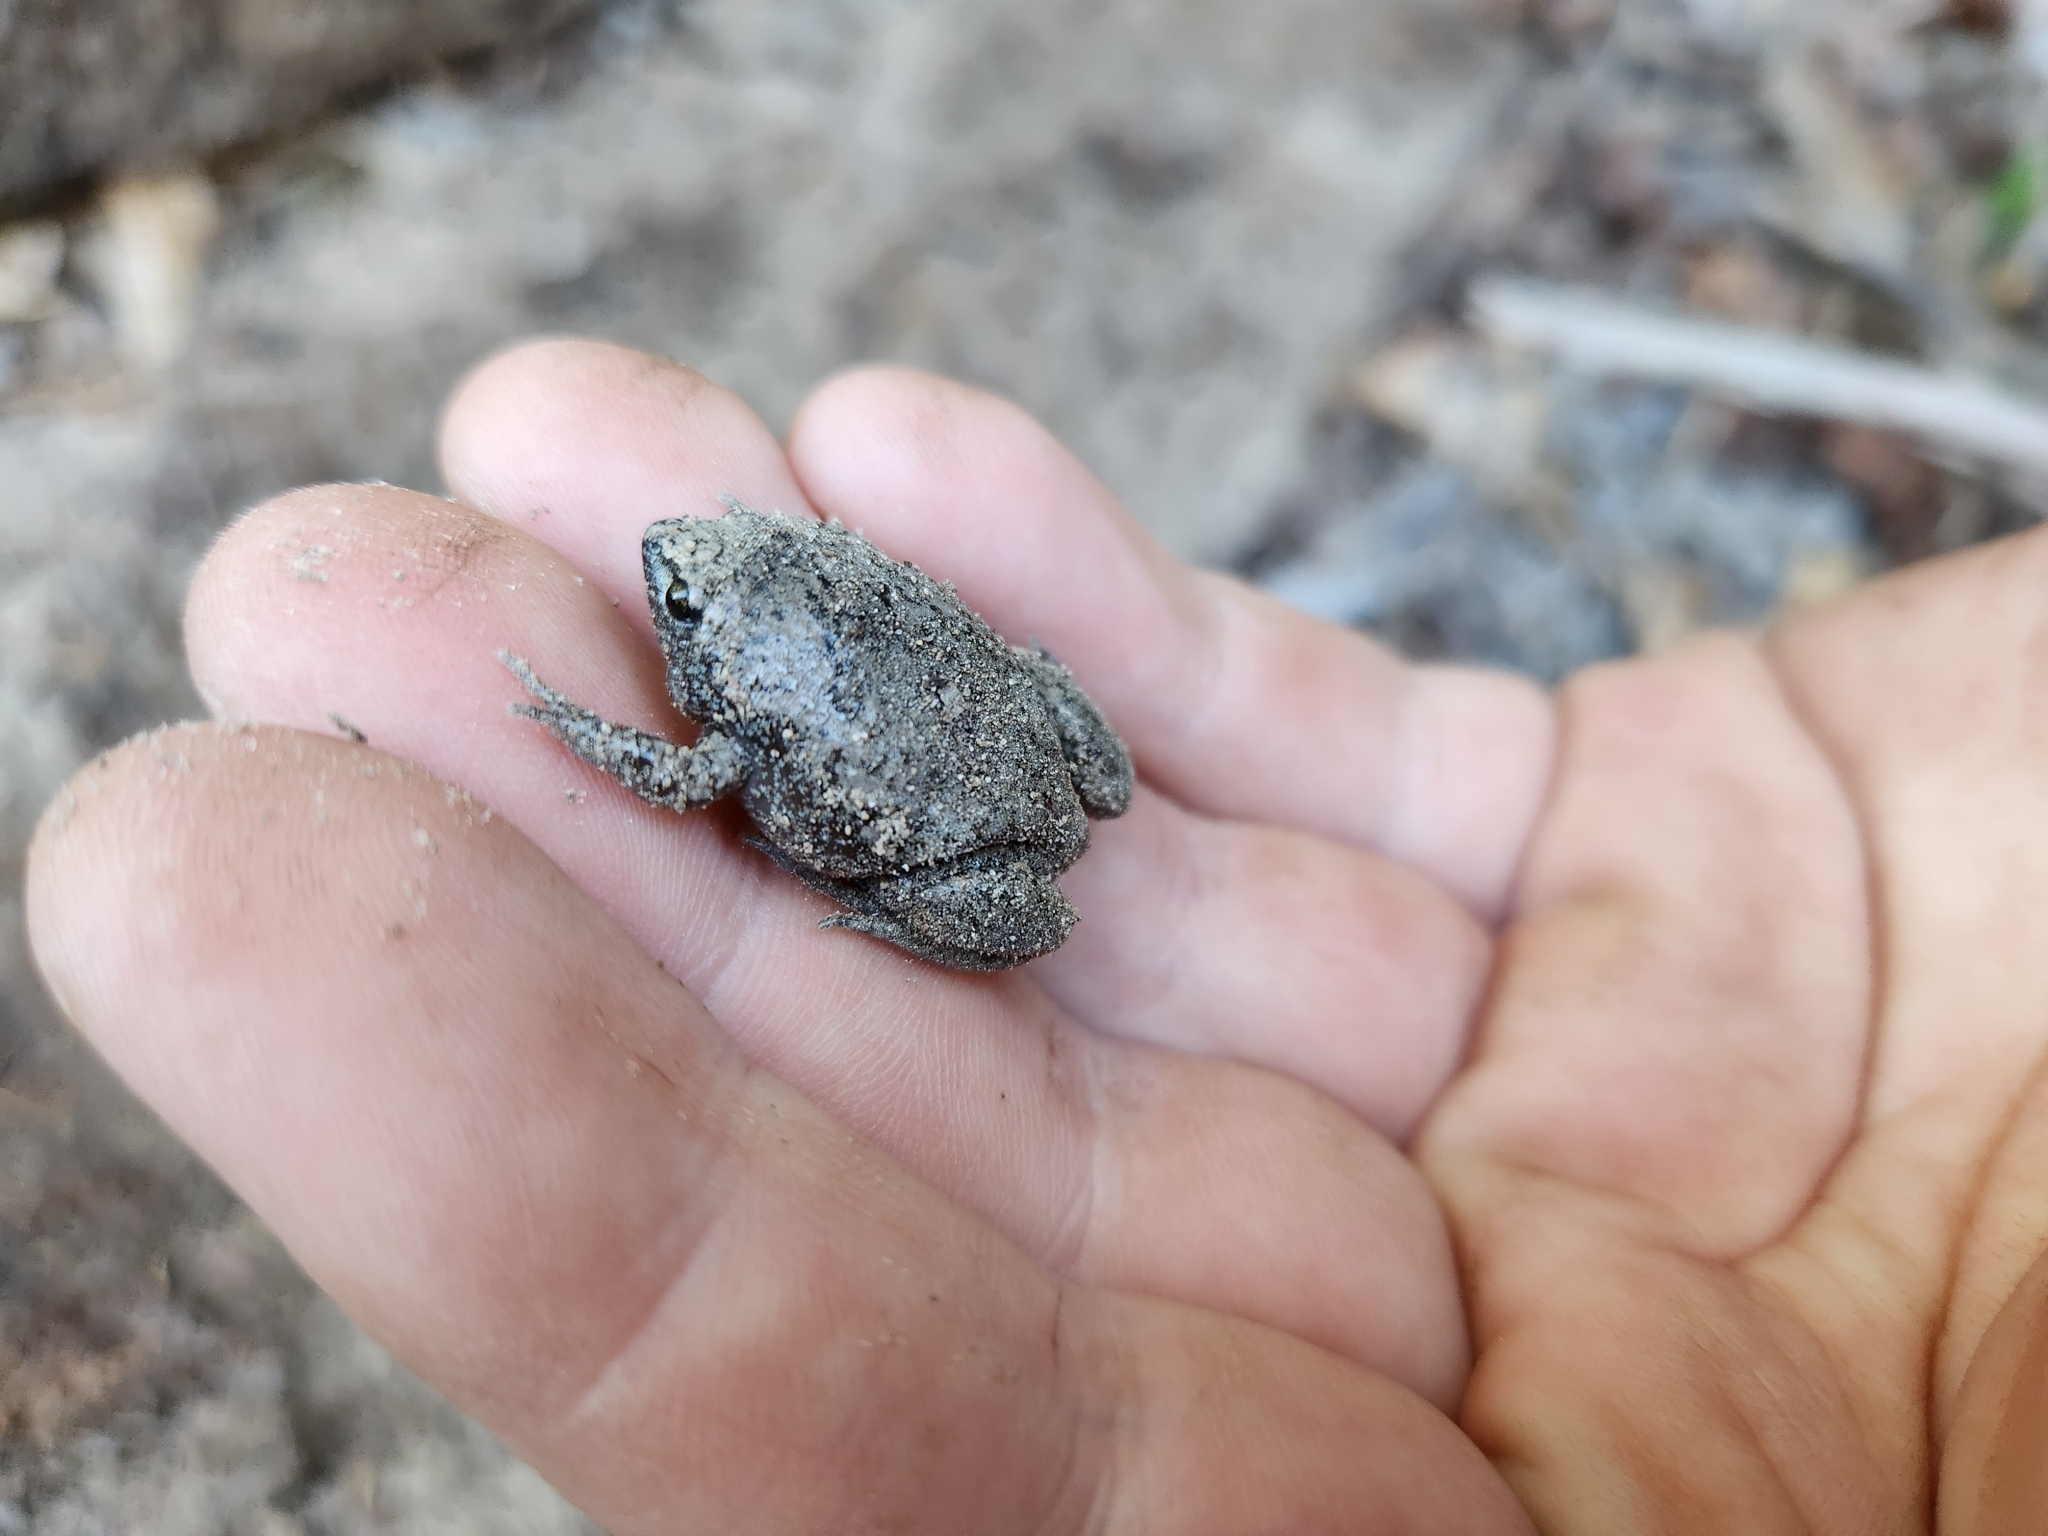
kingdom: Animalia
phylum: Chordata
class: Amphibia
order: Anura
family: Microhylidae
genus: Gastrophryne
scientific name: Gastrophryne carolinensis
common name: Eastern narrowmouth toad
